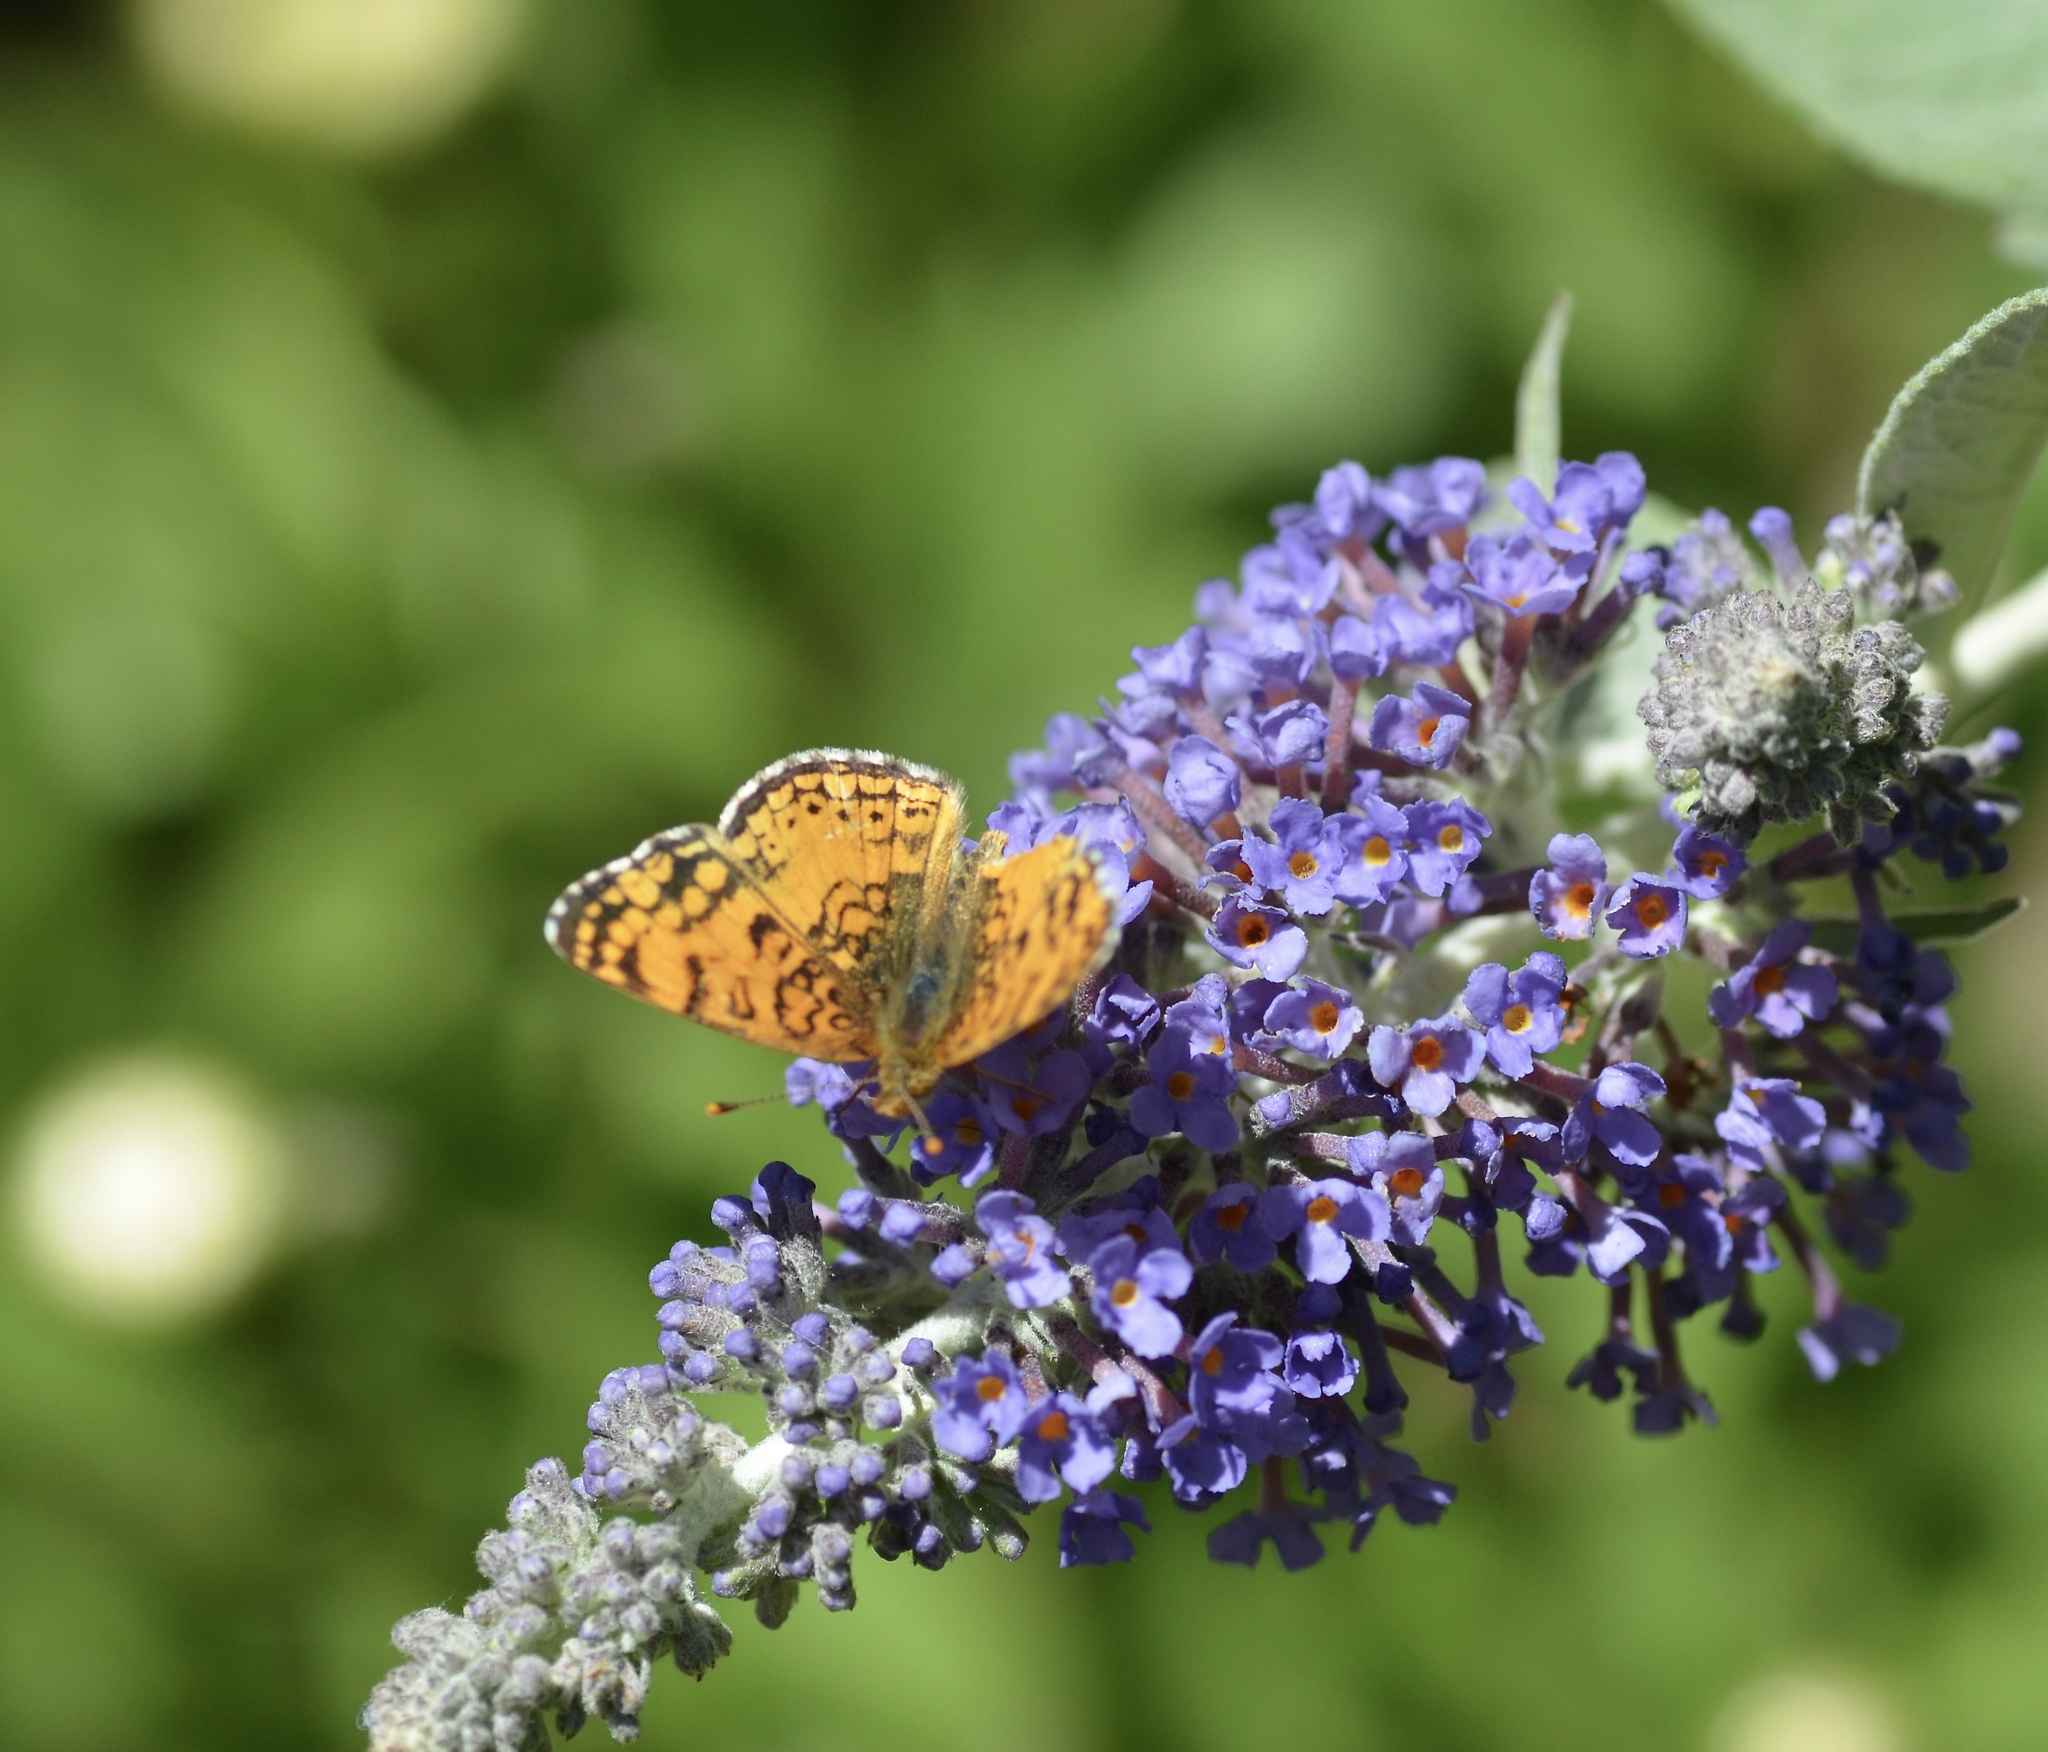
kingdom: Animalia
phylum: Arthropoda
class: Insecta
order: Lepidoptera
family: Nymphalidae
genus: Eresia
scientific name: Eresia aveyrona
